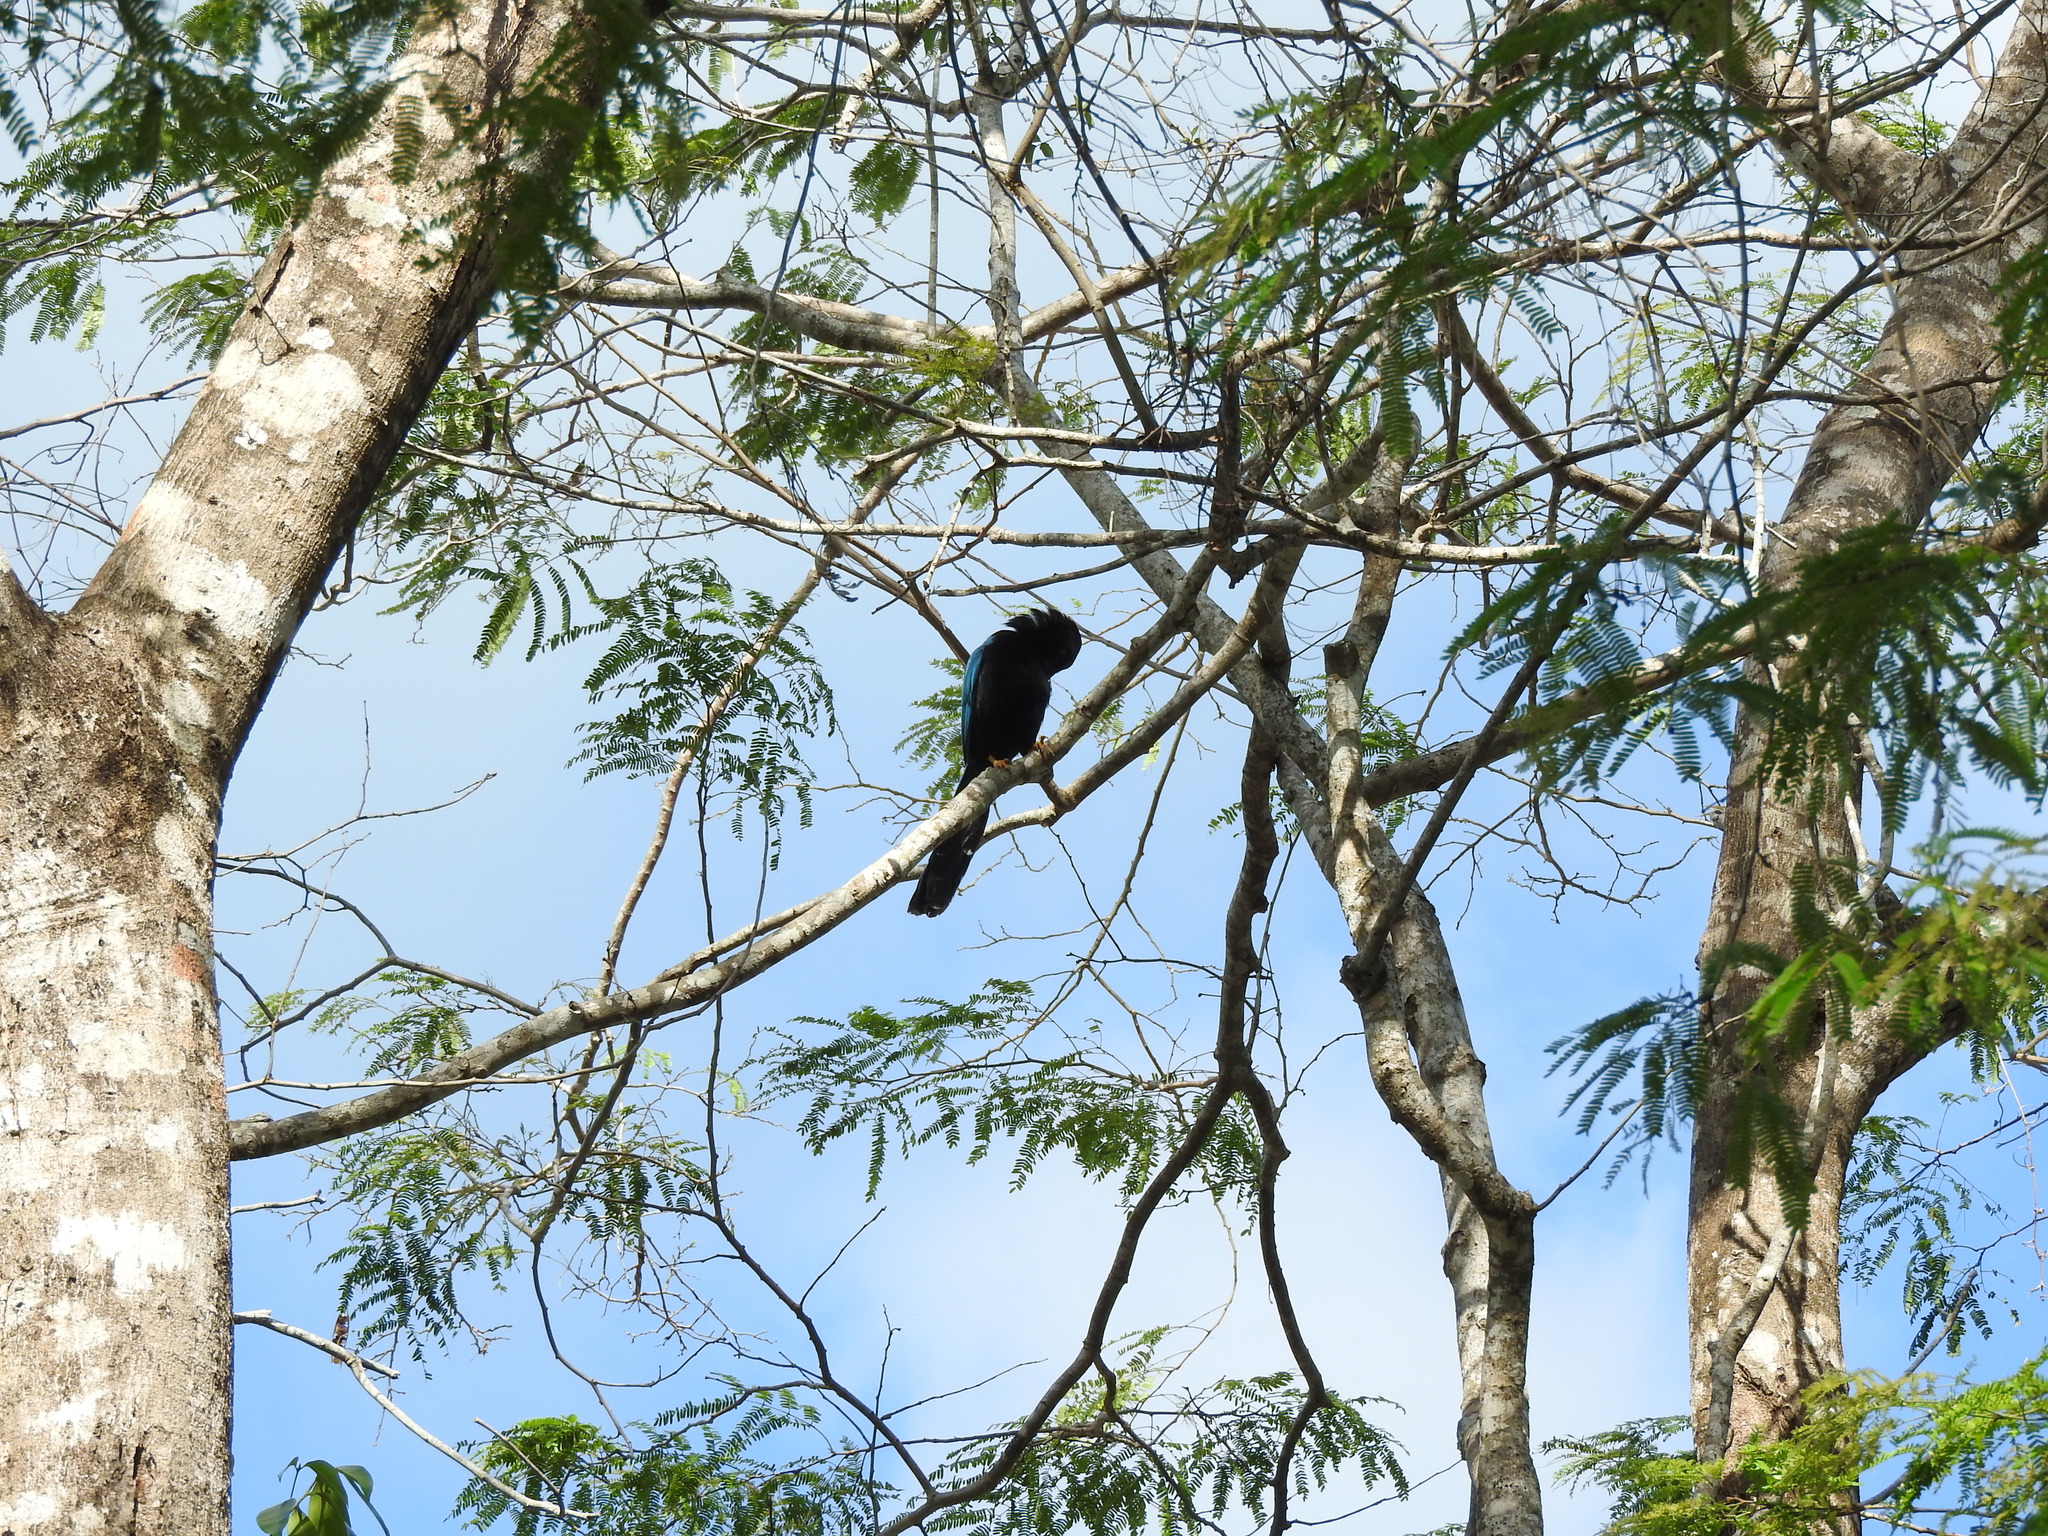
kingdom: Animalia
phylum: Chordata
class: Aves
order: Passeriformes
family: Corvidae
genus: Cyanocorax
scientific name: Cyanocorax yucatanicus
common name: Yucatan jay
